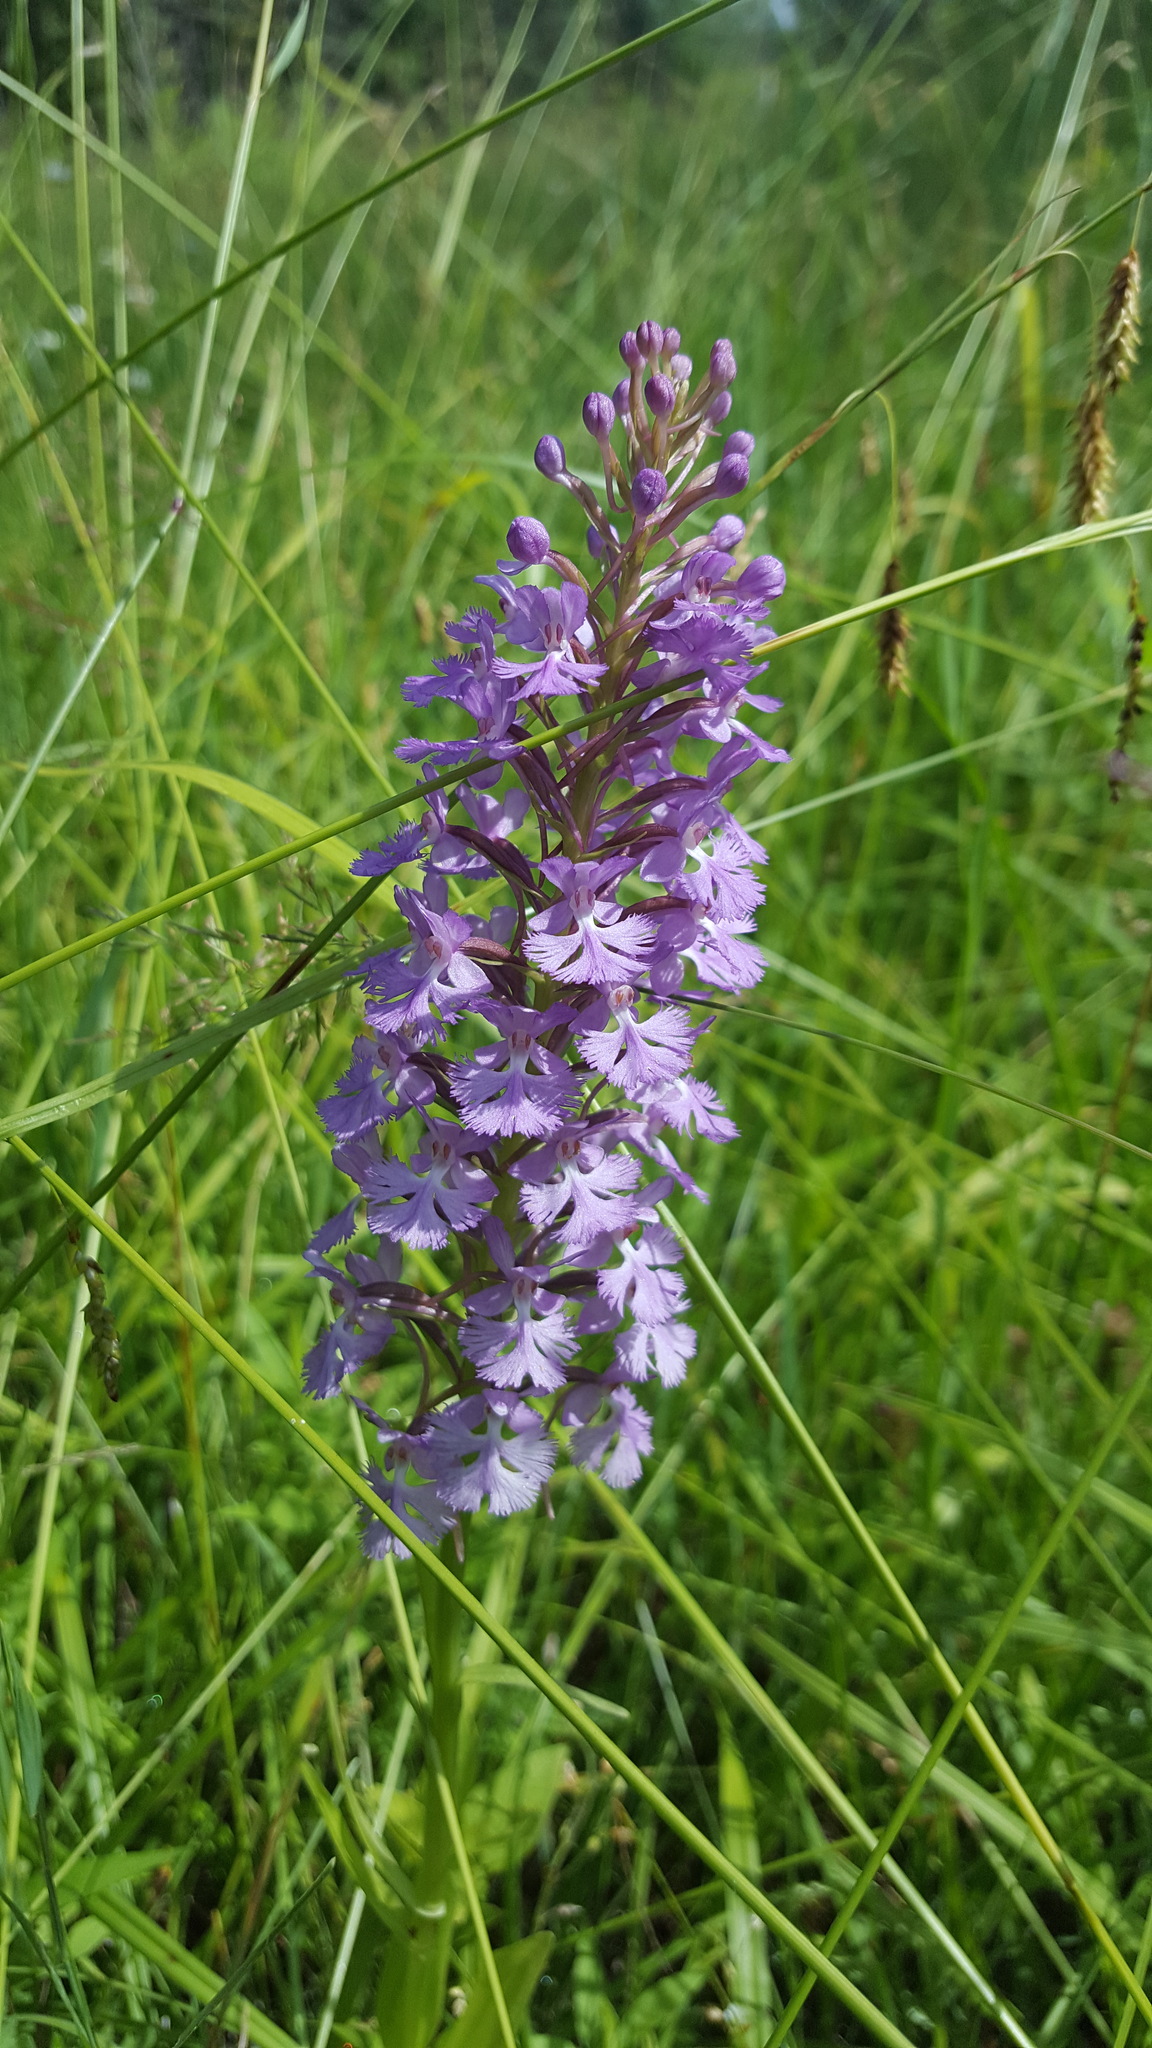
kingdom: Plantae
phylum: Tracheophyta
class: Liliopsida
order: Asparagales
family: Orchidaceae
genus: Platanthera
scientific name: Platanthera psycodes
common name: Lesser purple fringed orchid
